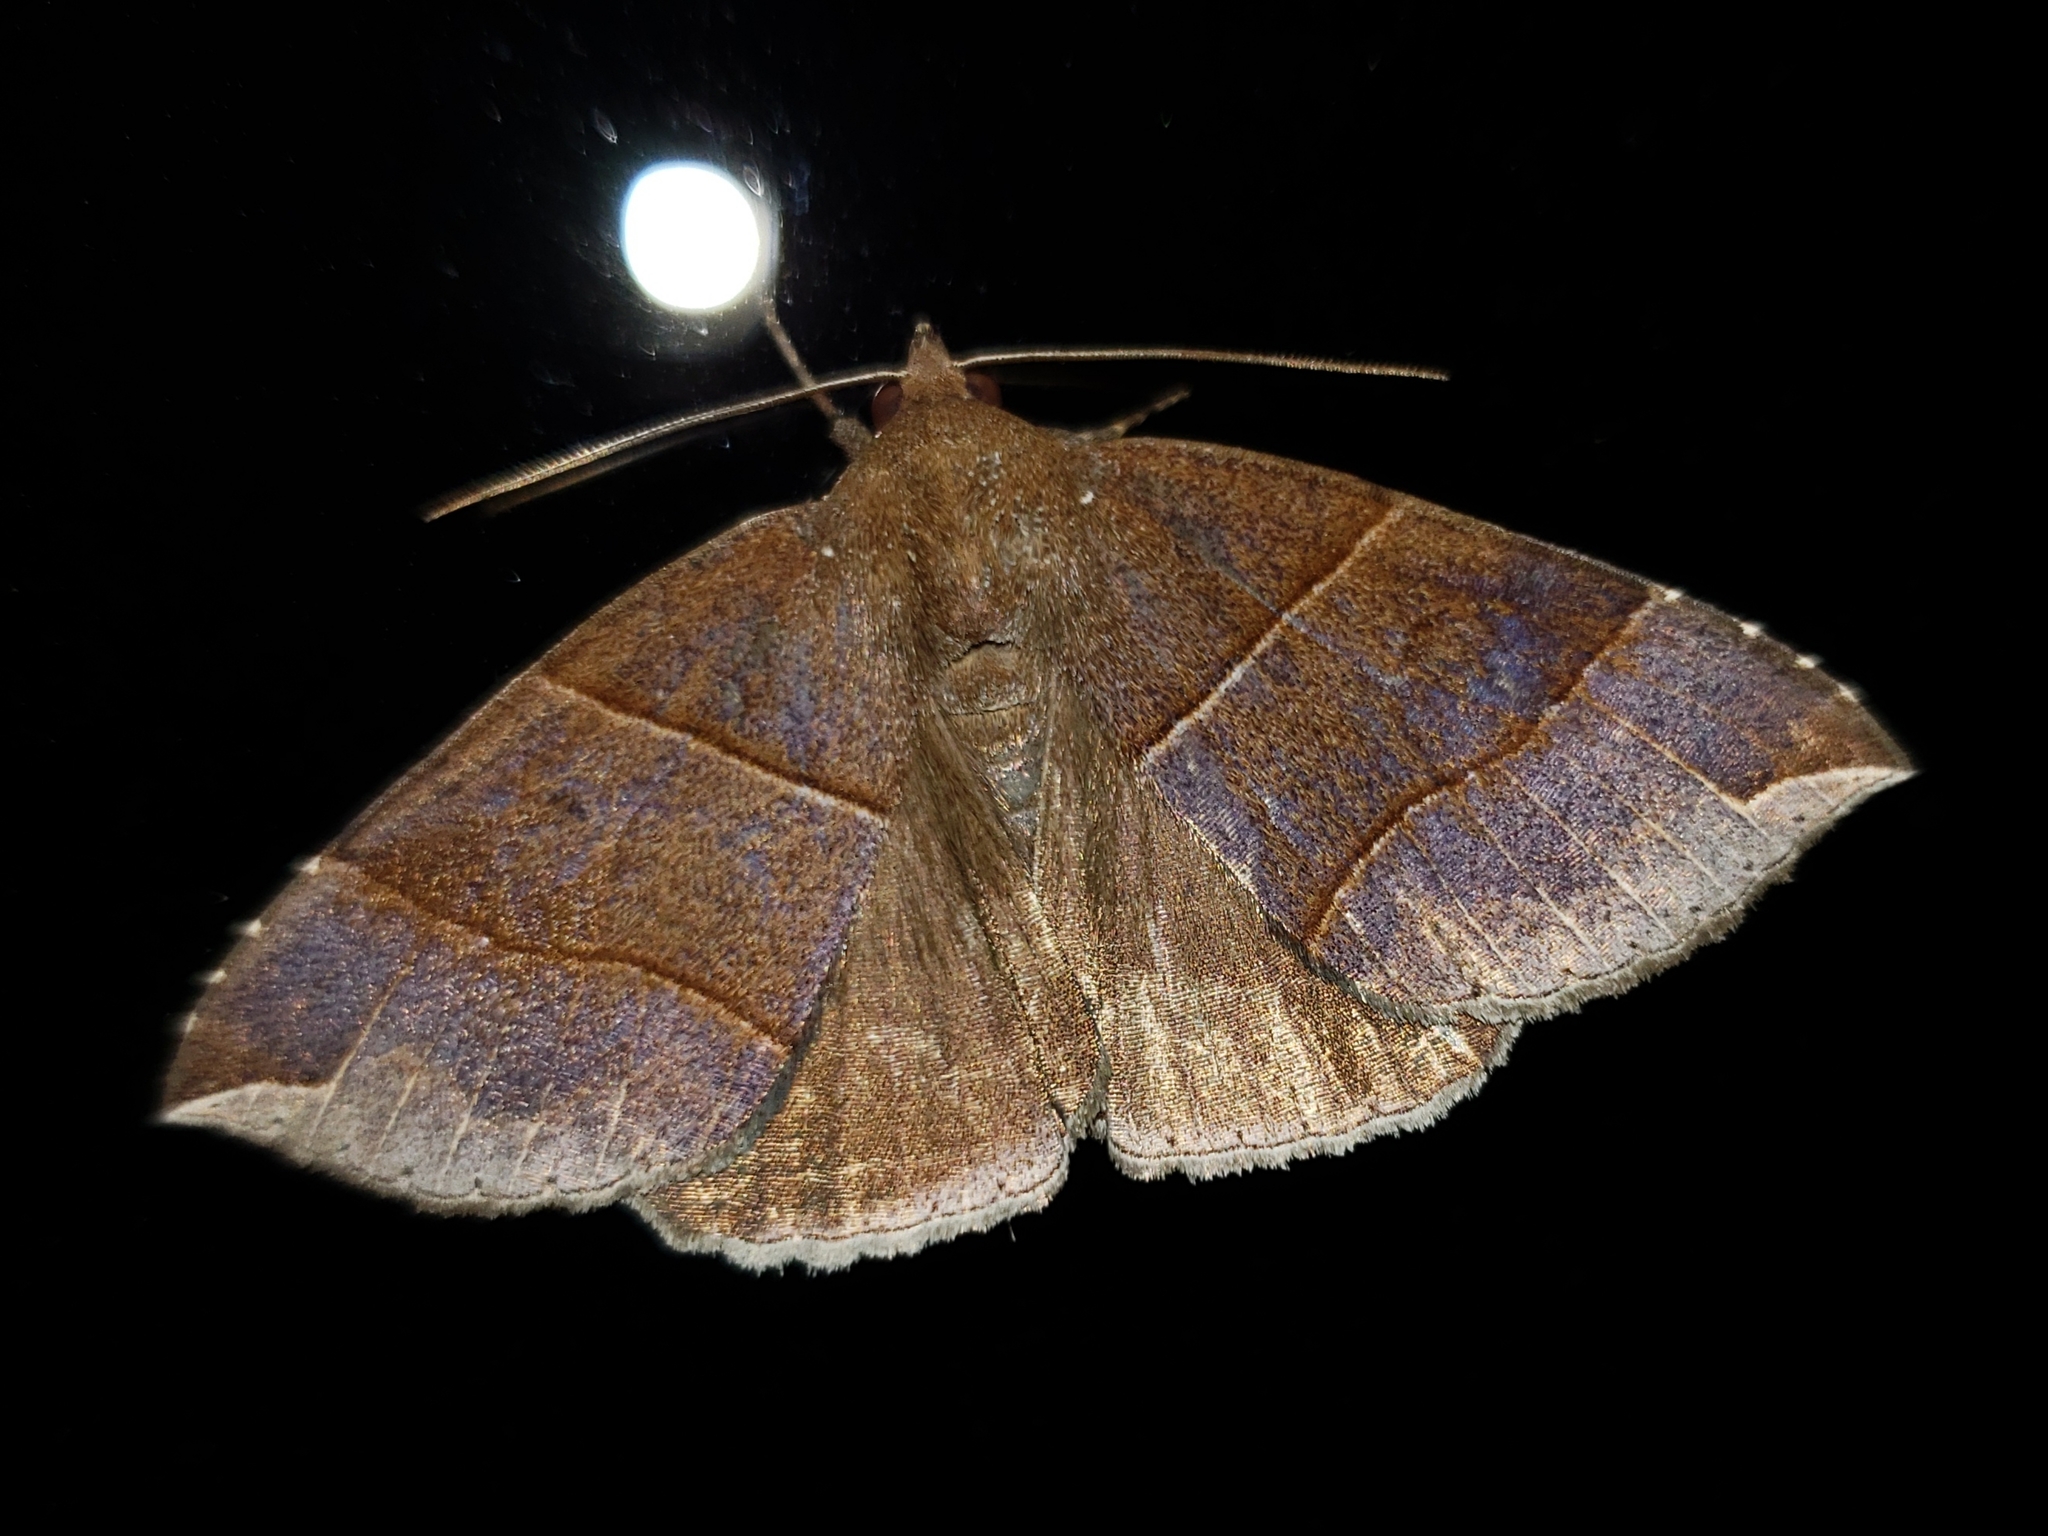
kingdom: Animalia
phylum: Arthropoda
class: Insecta
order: Lepidoptera
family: Erebidae
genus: Parallelia
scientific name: Parallelia bistriaris
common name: Maple looper moth
